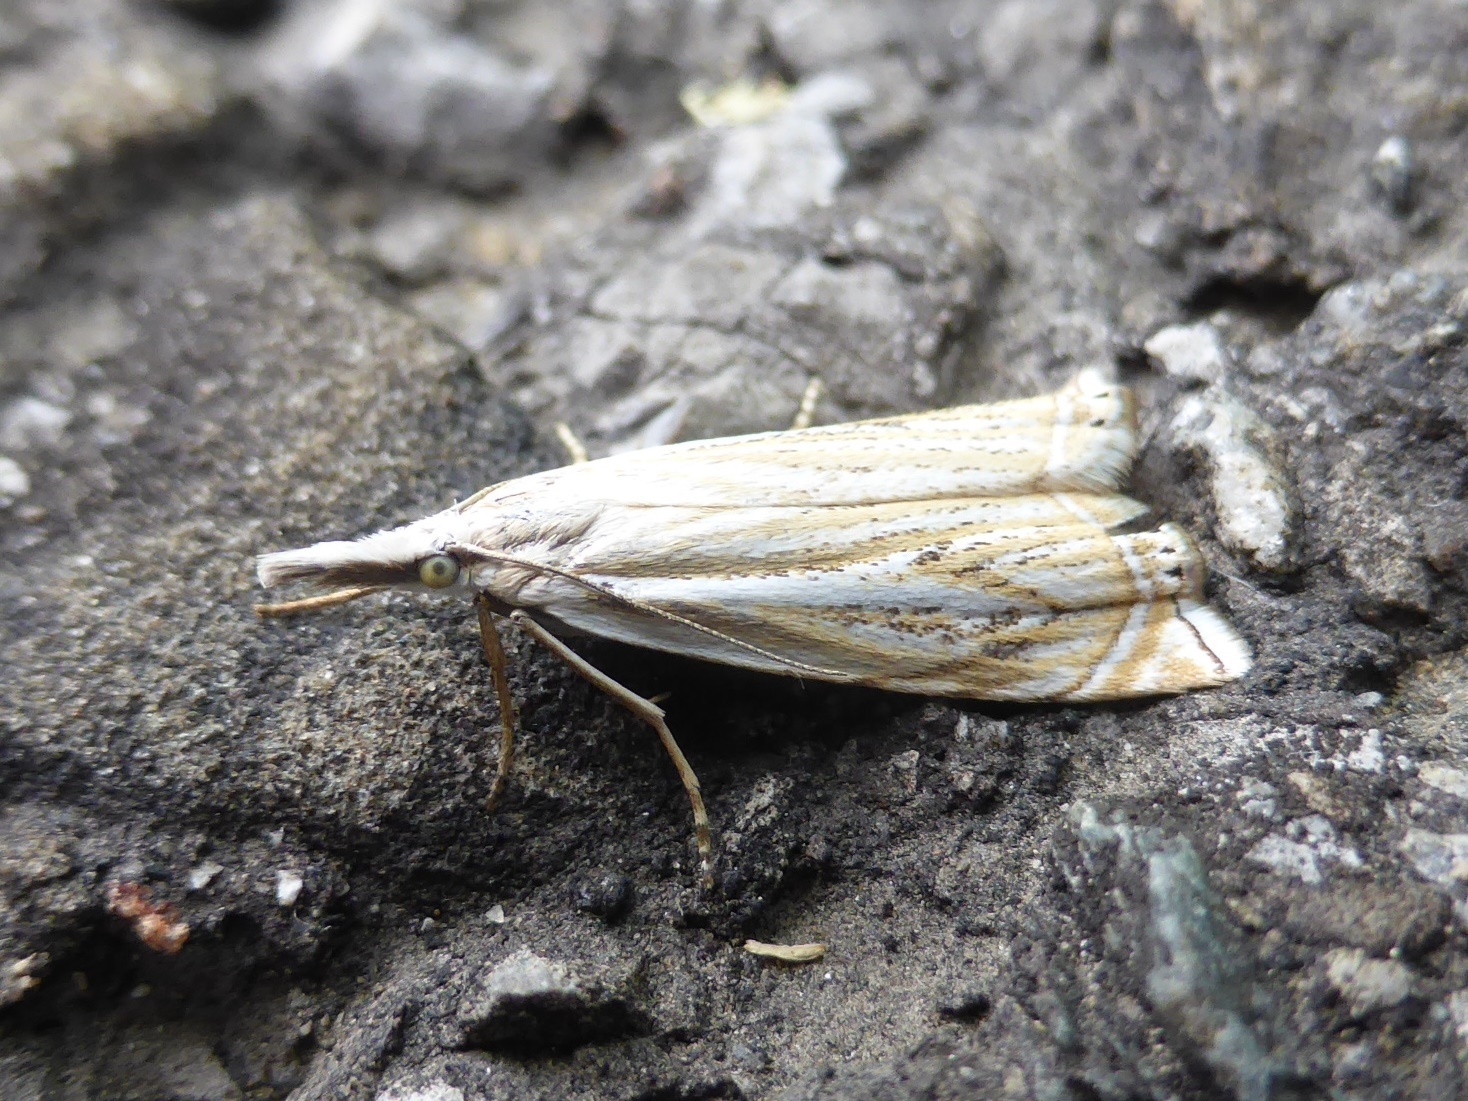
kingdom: Animalia
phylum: Arthropoda
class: Insecta
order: Lepidoptera
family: Crambidae
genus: Crambus
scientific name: Crambus nemorella
